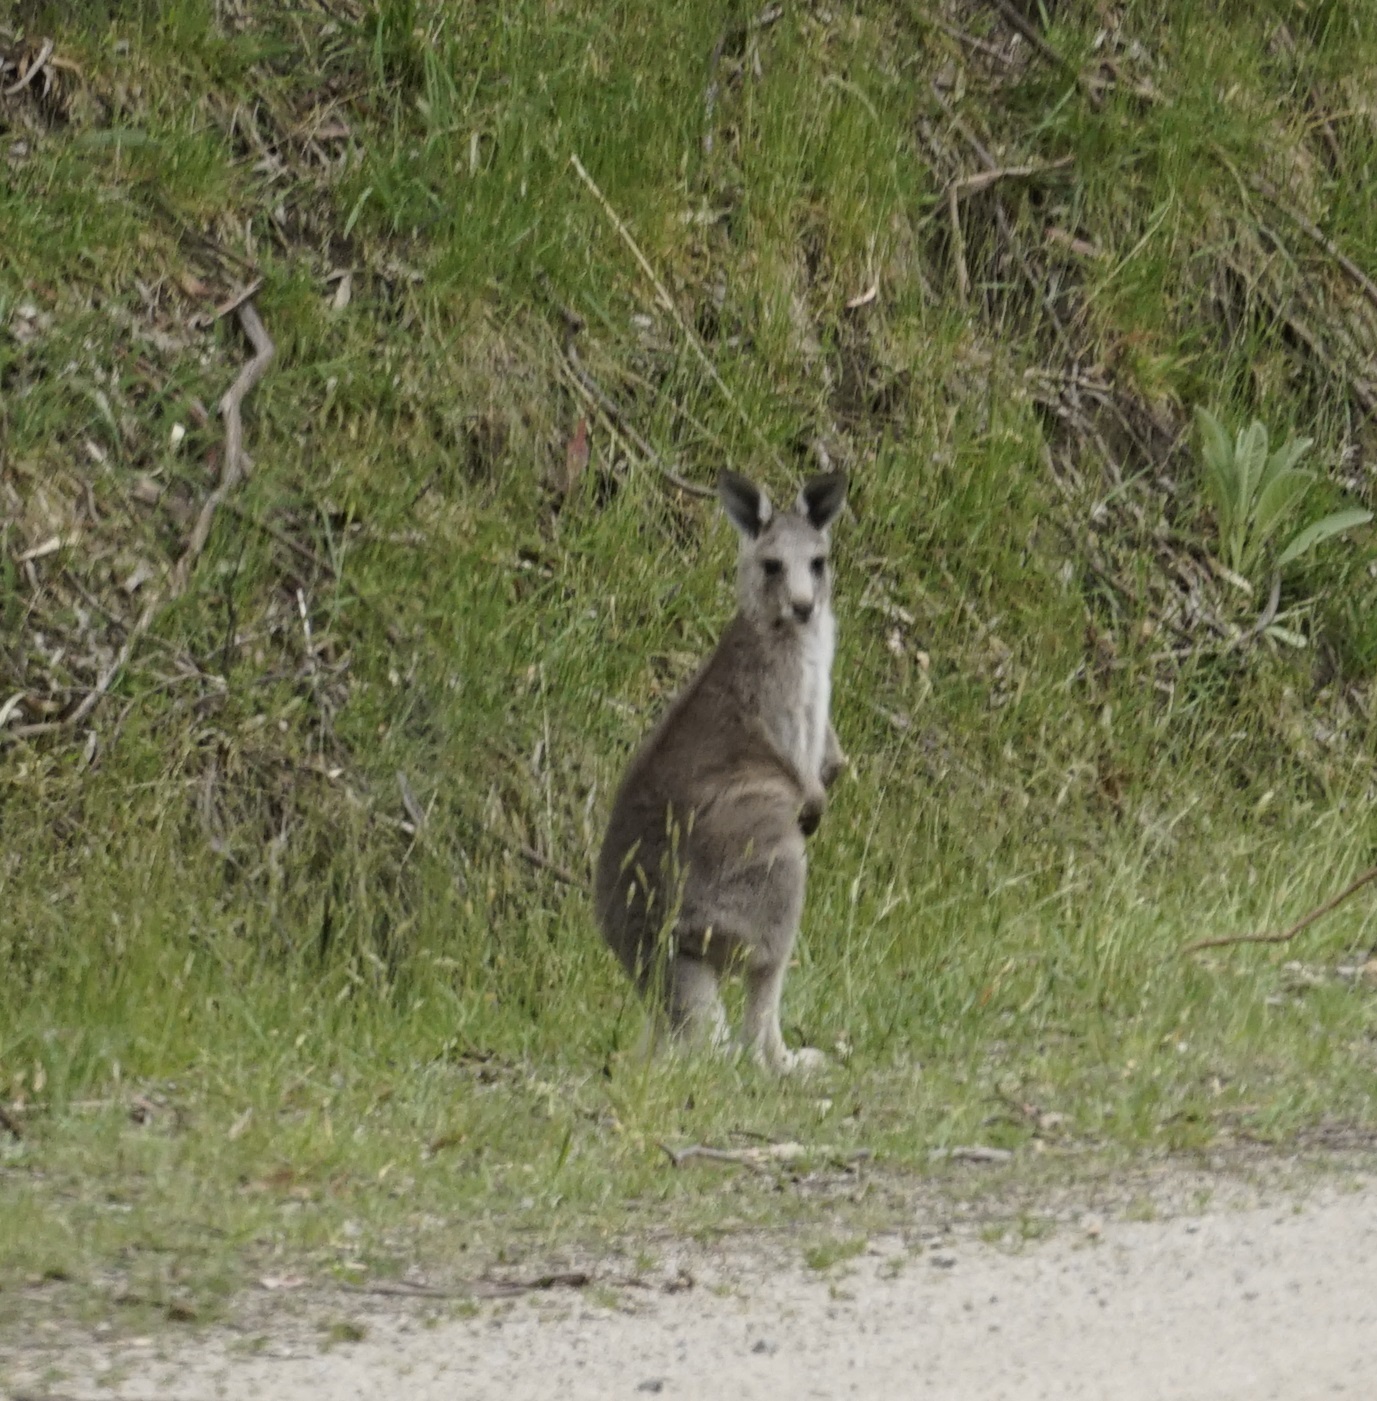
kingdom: Animalia
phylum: Chordata
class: Mammalia
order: Diprotodontia
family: Macropodidae
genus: Macropus
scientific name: Macropus giganteus
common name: Eastern grey kangaroo
